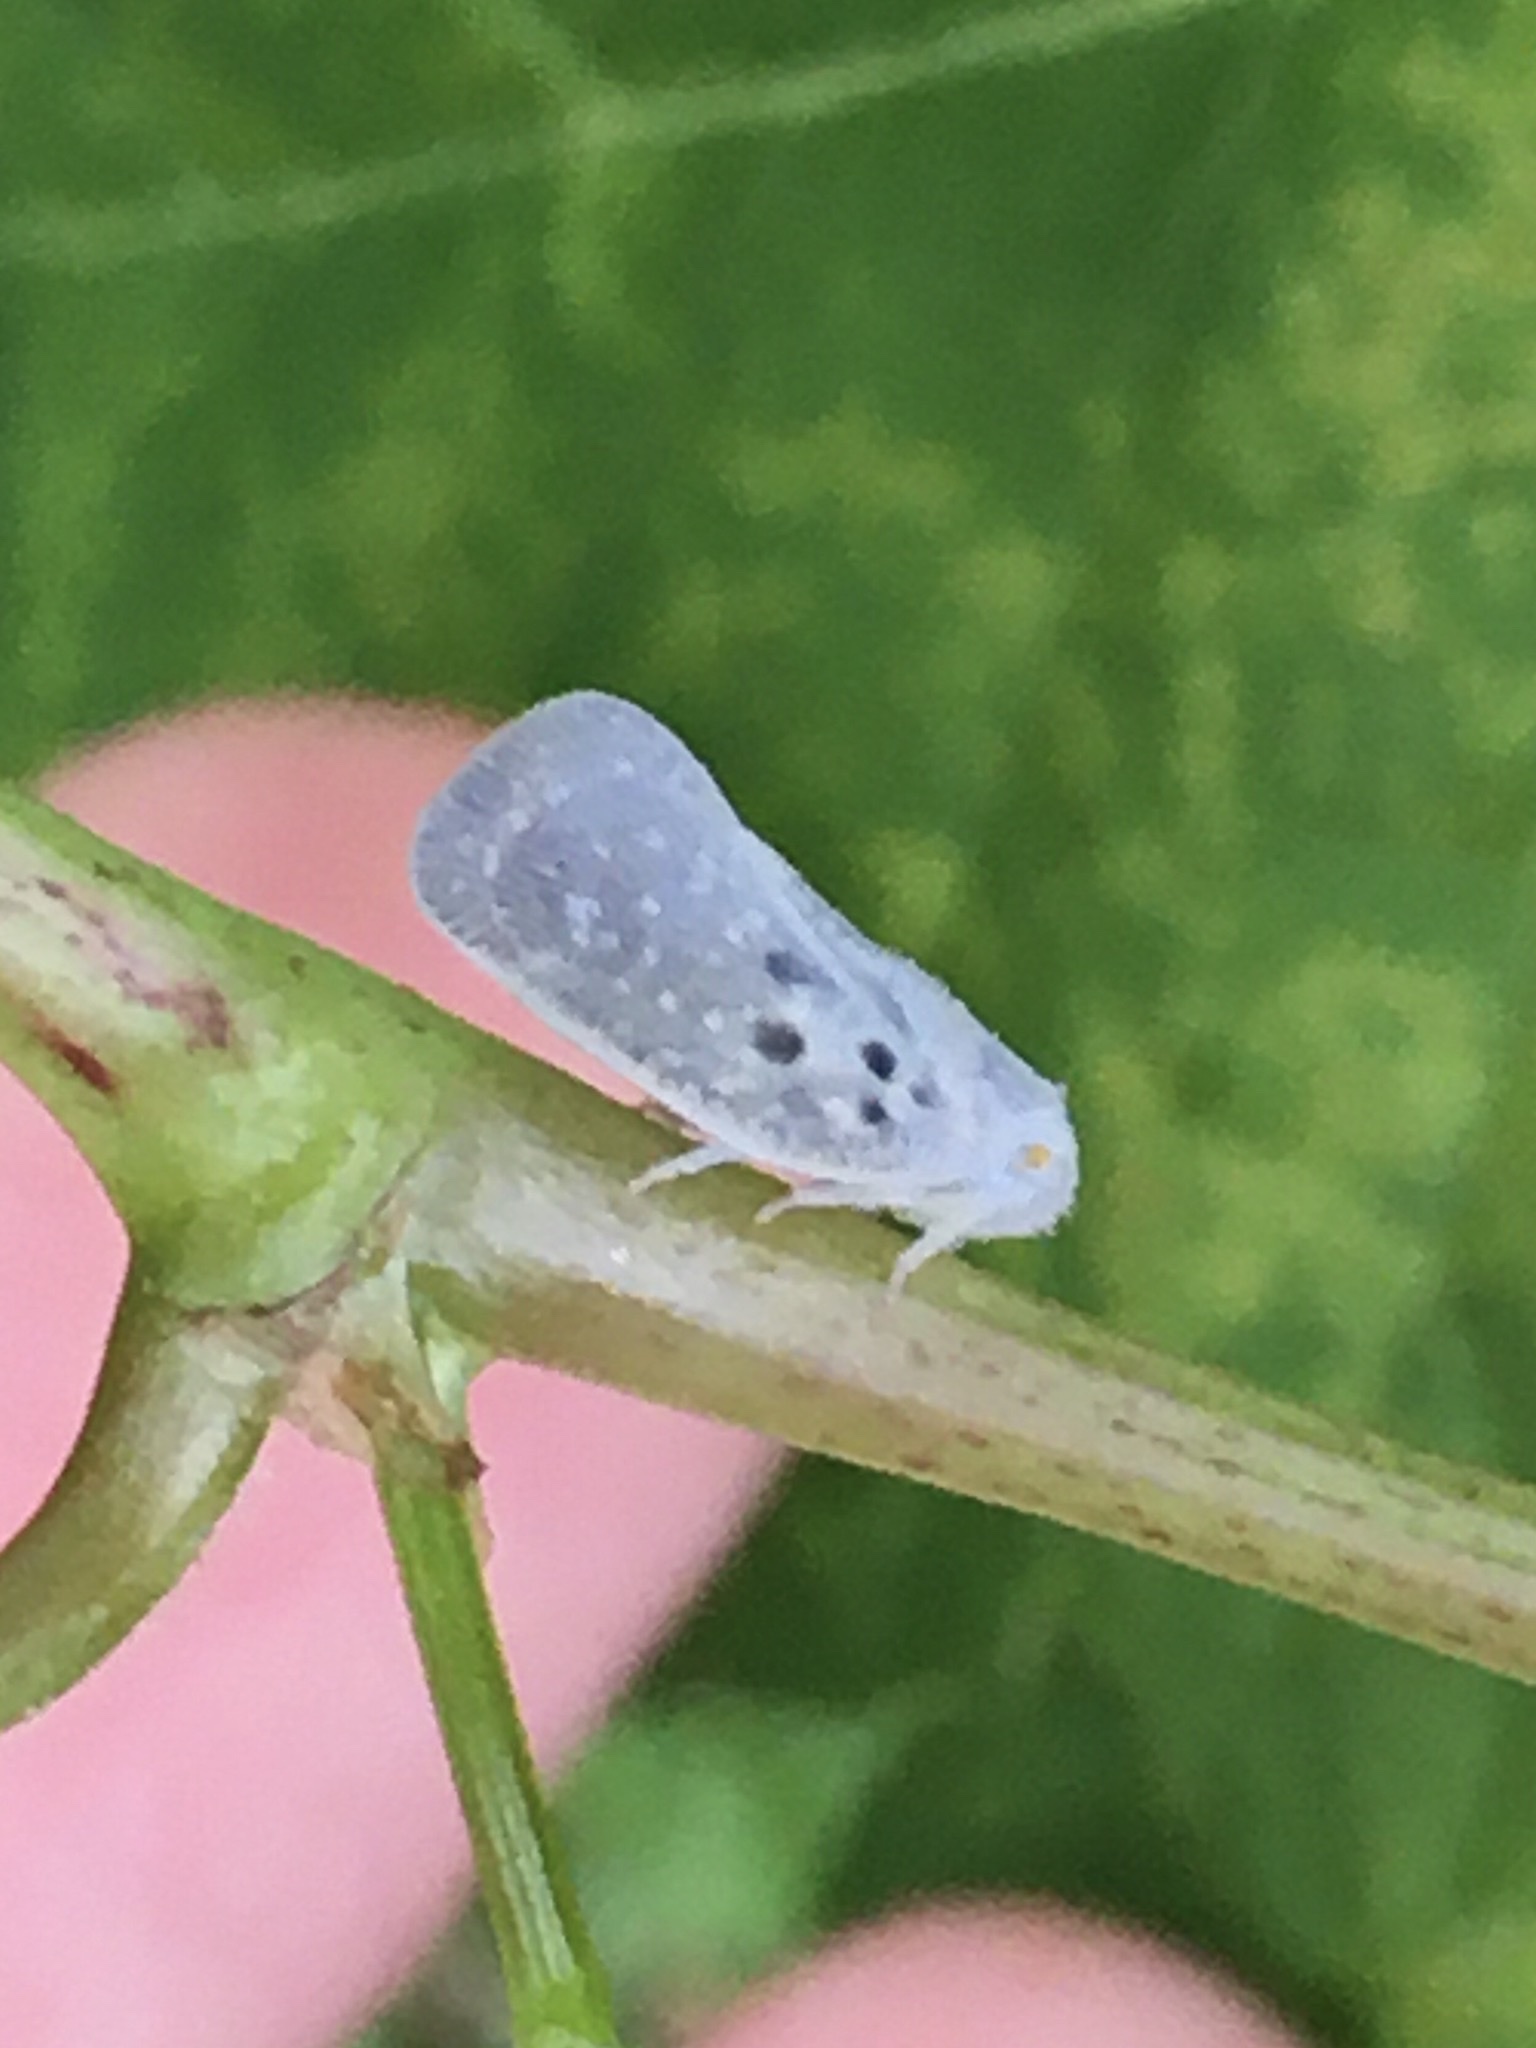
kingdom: Animalia
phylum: Arthropoda
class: Insecta
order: Hemiptera
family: Flatidae
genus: Metcalfa
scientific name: Metcalfa pruinosa
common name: Citrus flatid planthopper
